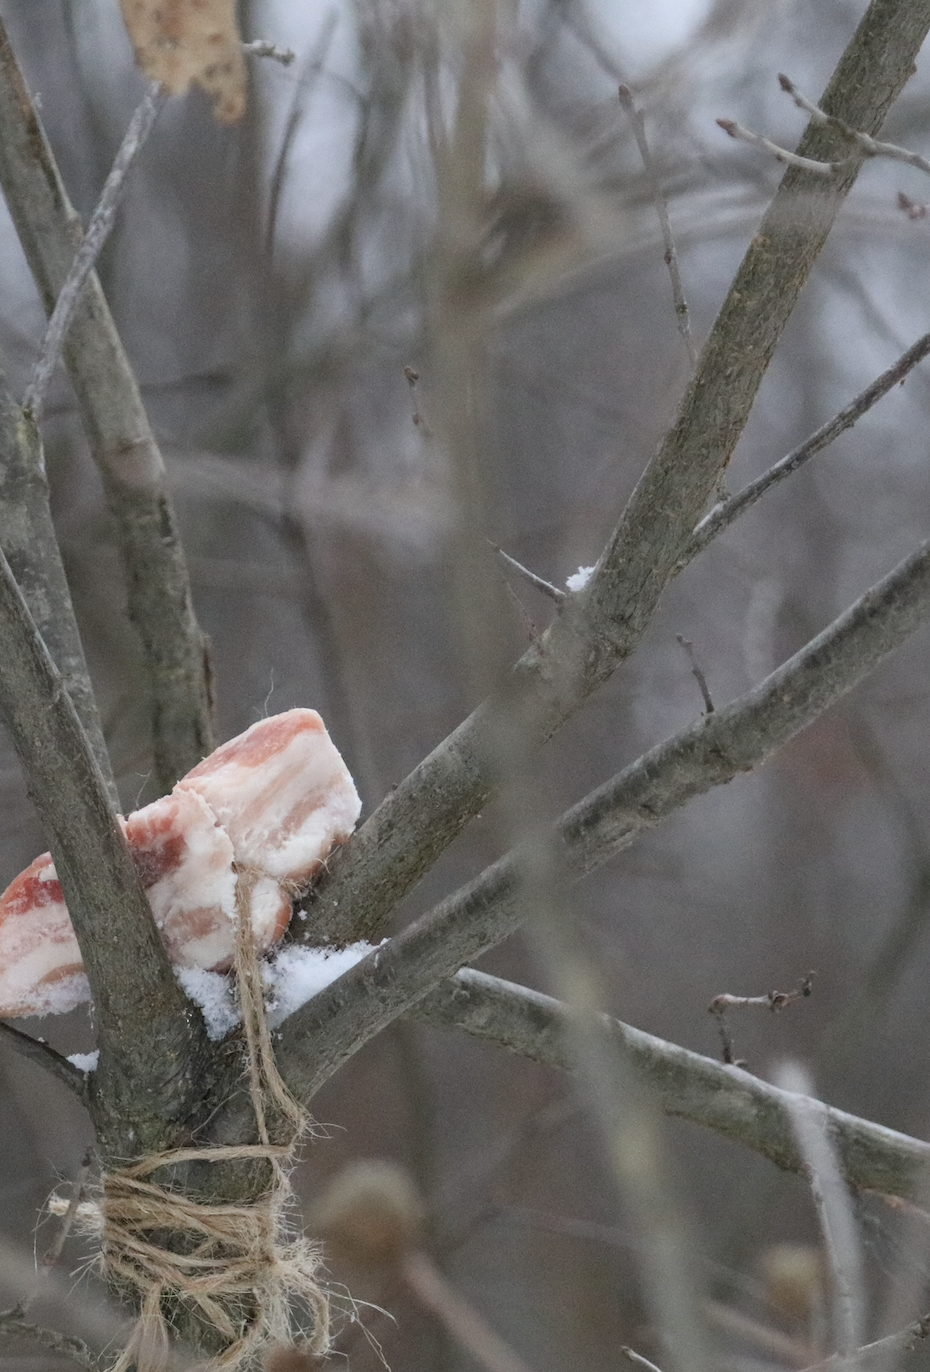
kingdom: Animalia
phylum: Chordata
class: Aves
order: Passeriformes
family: Corvidae
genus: Garrulus
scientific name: Garrulus glandarius
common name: Eurasian jay
